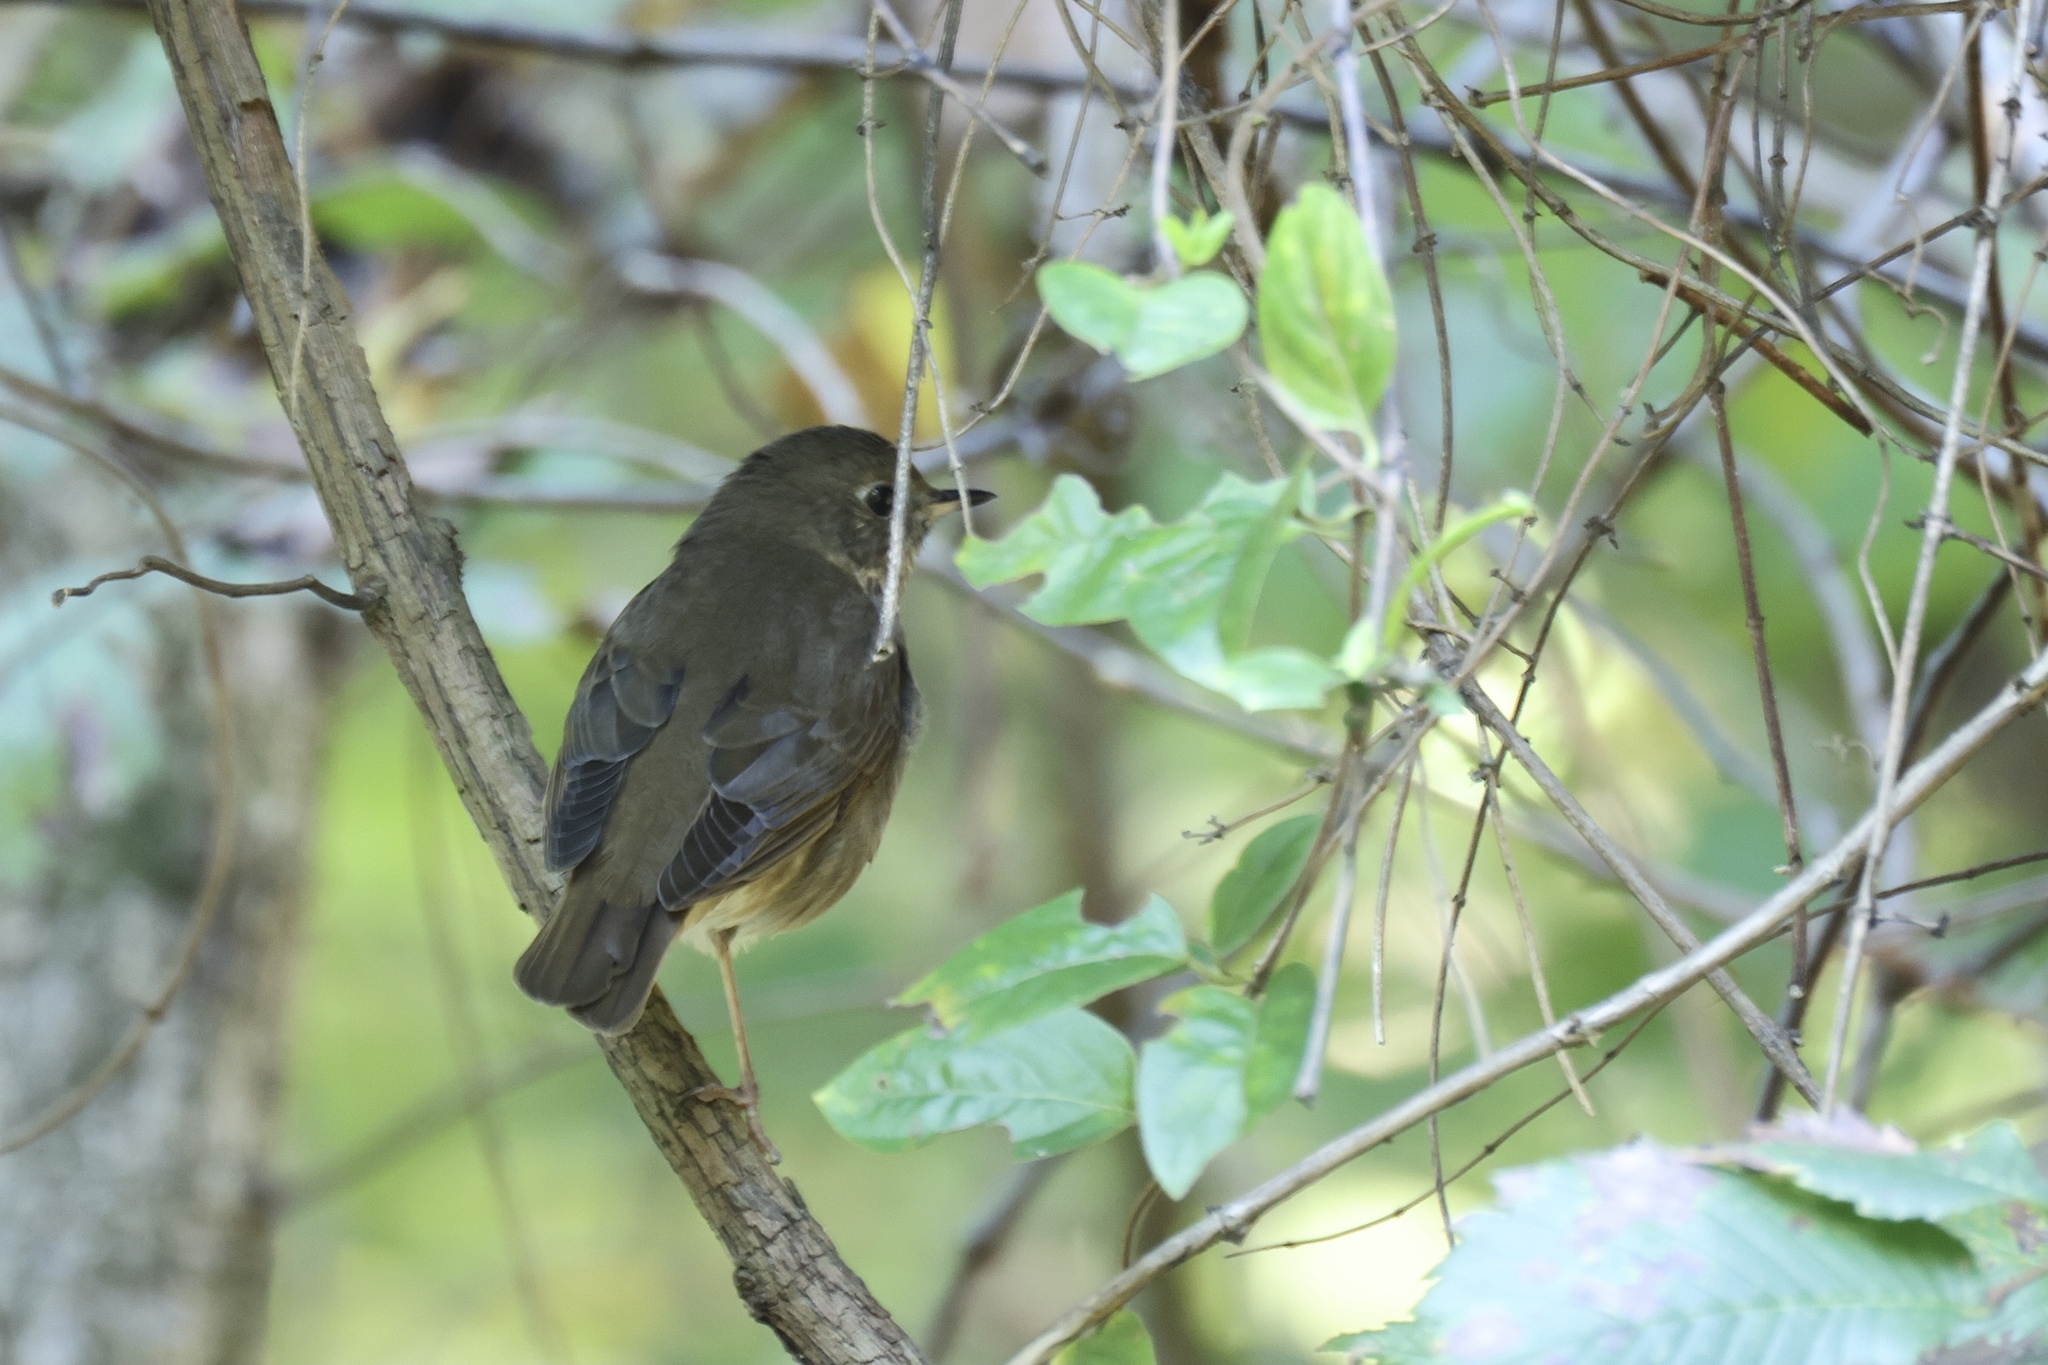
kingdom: Animalia
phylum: Chordata
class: Aves
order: Passeriformes
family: Turdidae
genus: Catharus
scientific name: Catharus ustulatus
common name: Swainson's thrush
